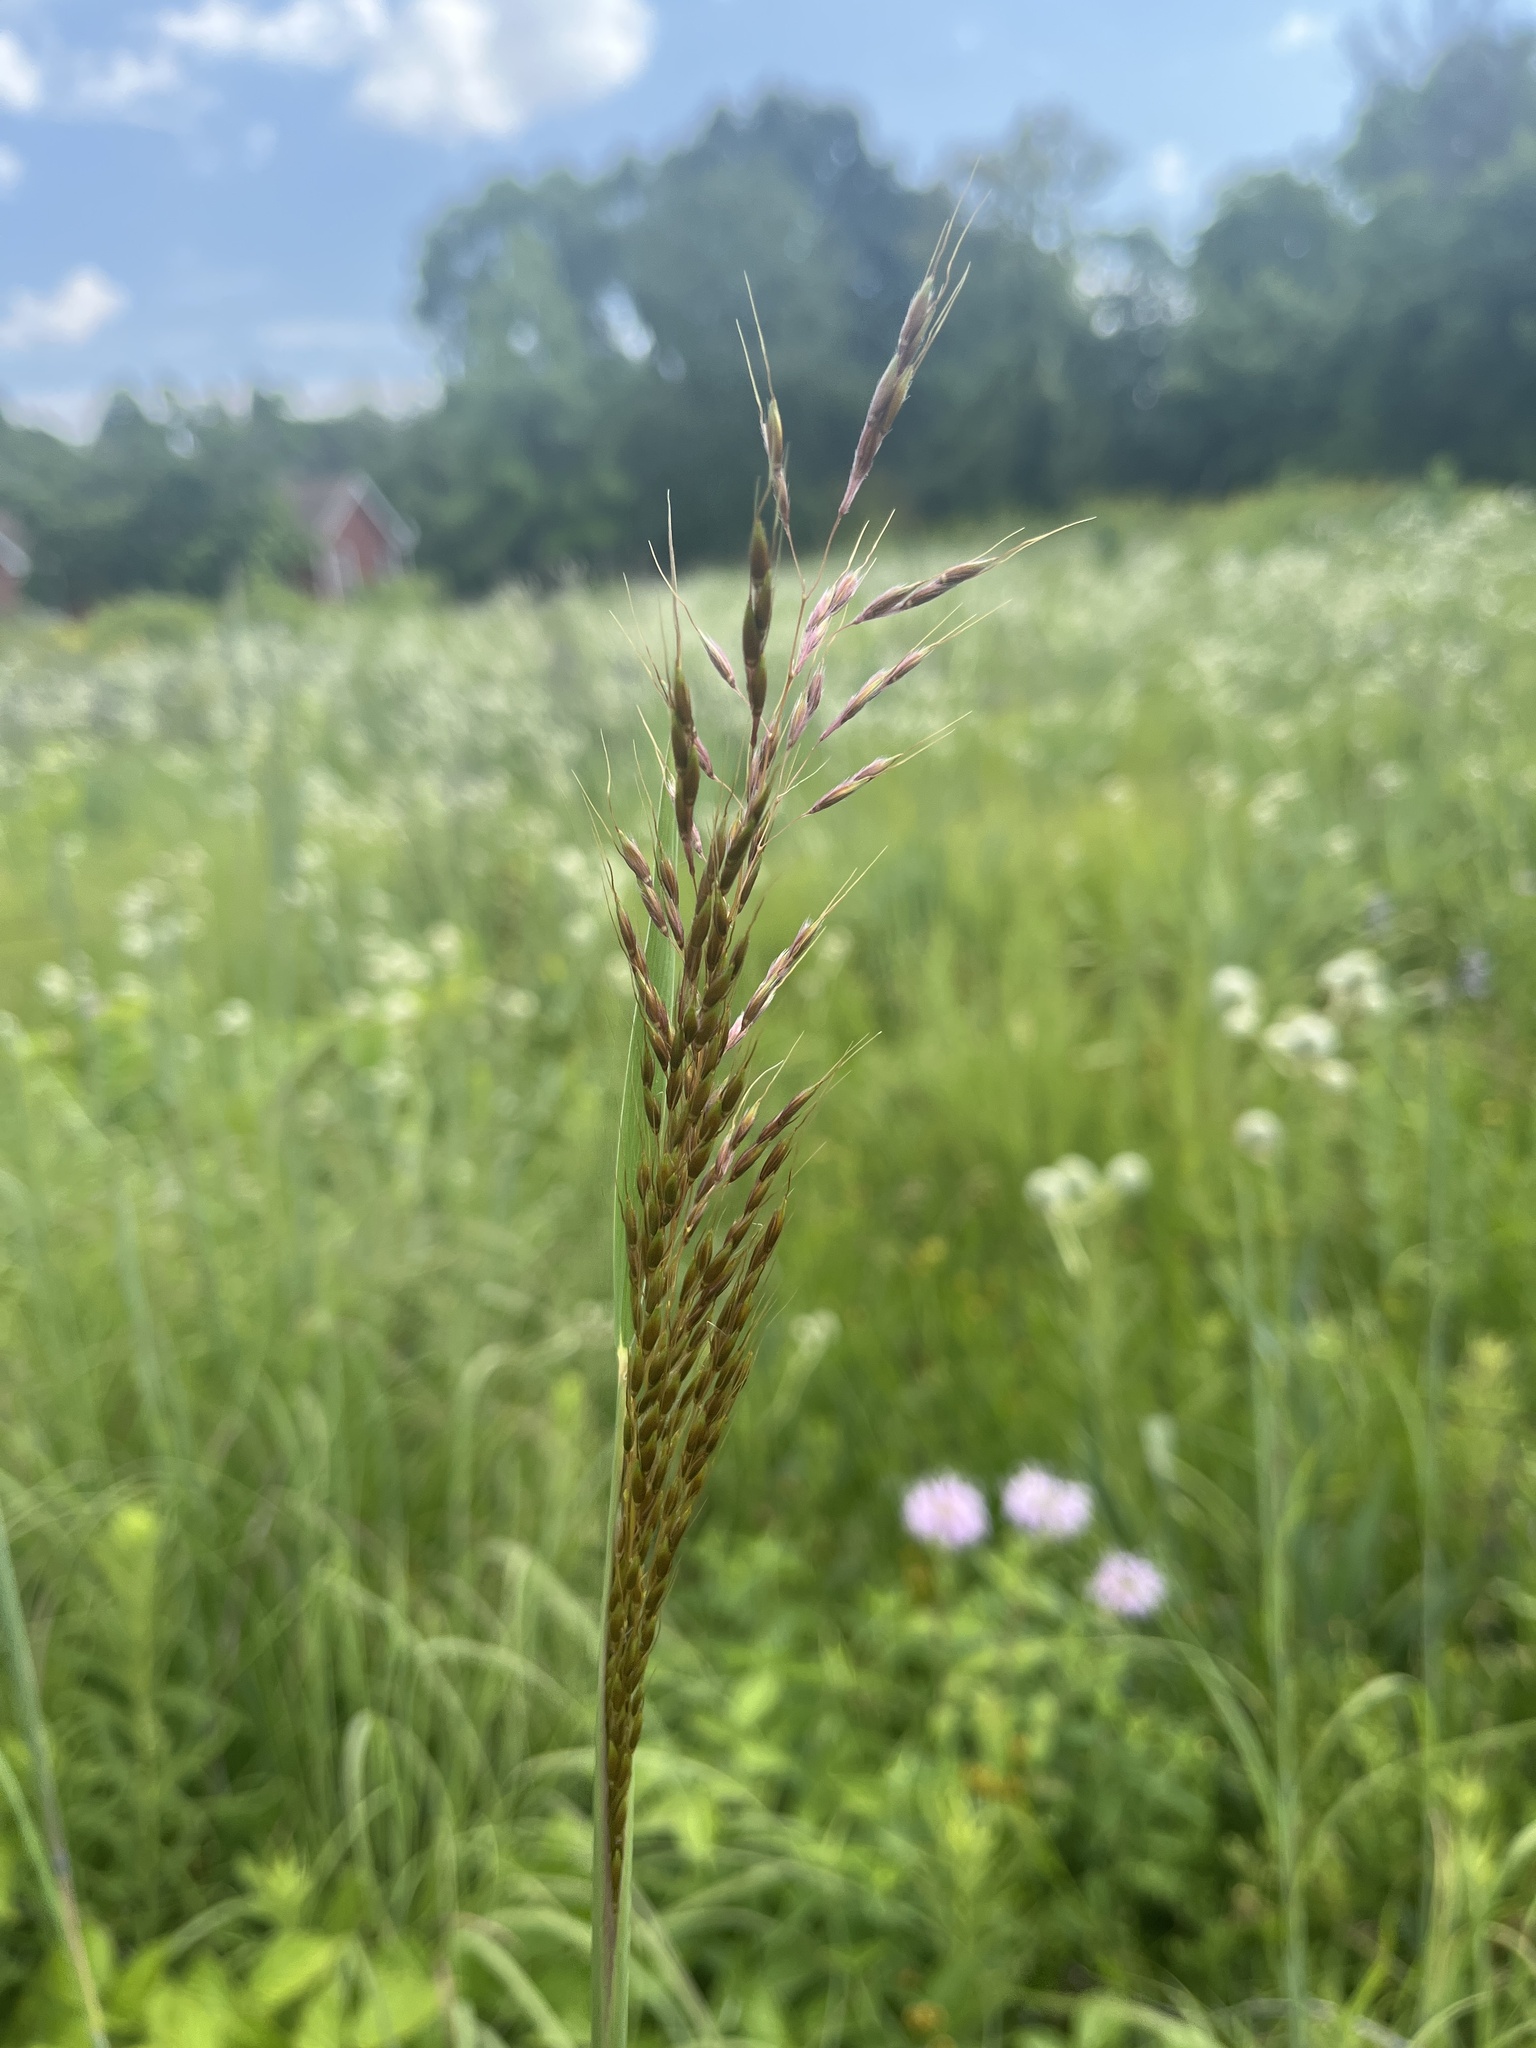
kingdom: Plantae
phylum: Tracheophyta
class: Liliopsida
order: Poales
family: Poaceae
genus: Sorghastrum
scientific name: Sorghastrum nutans
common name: Indian grass
